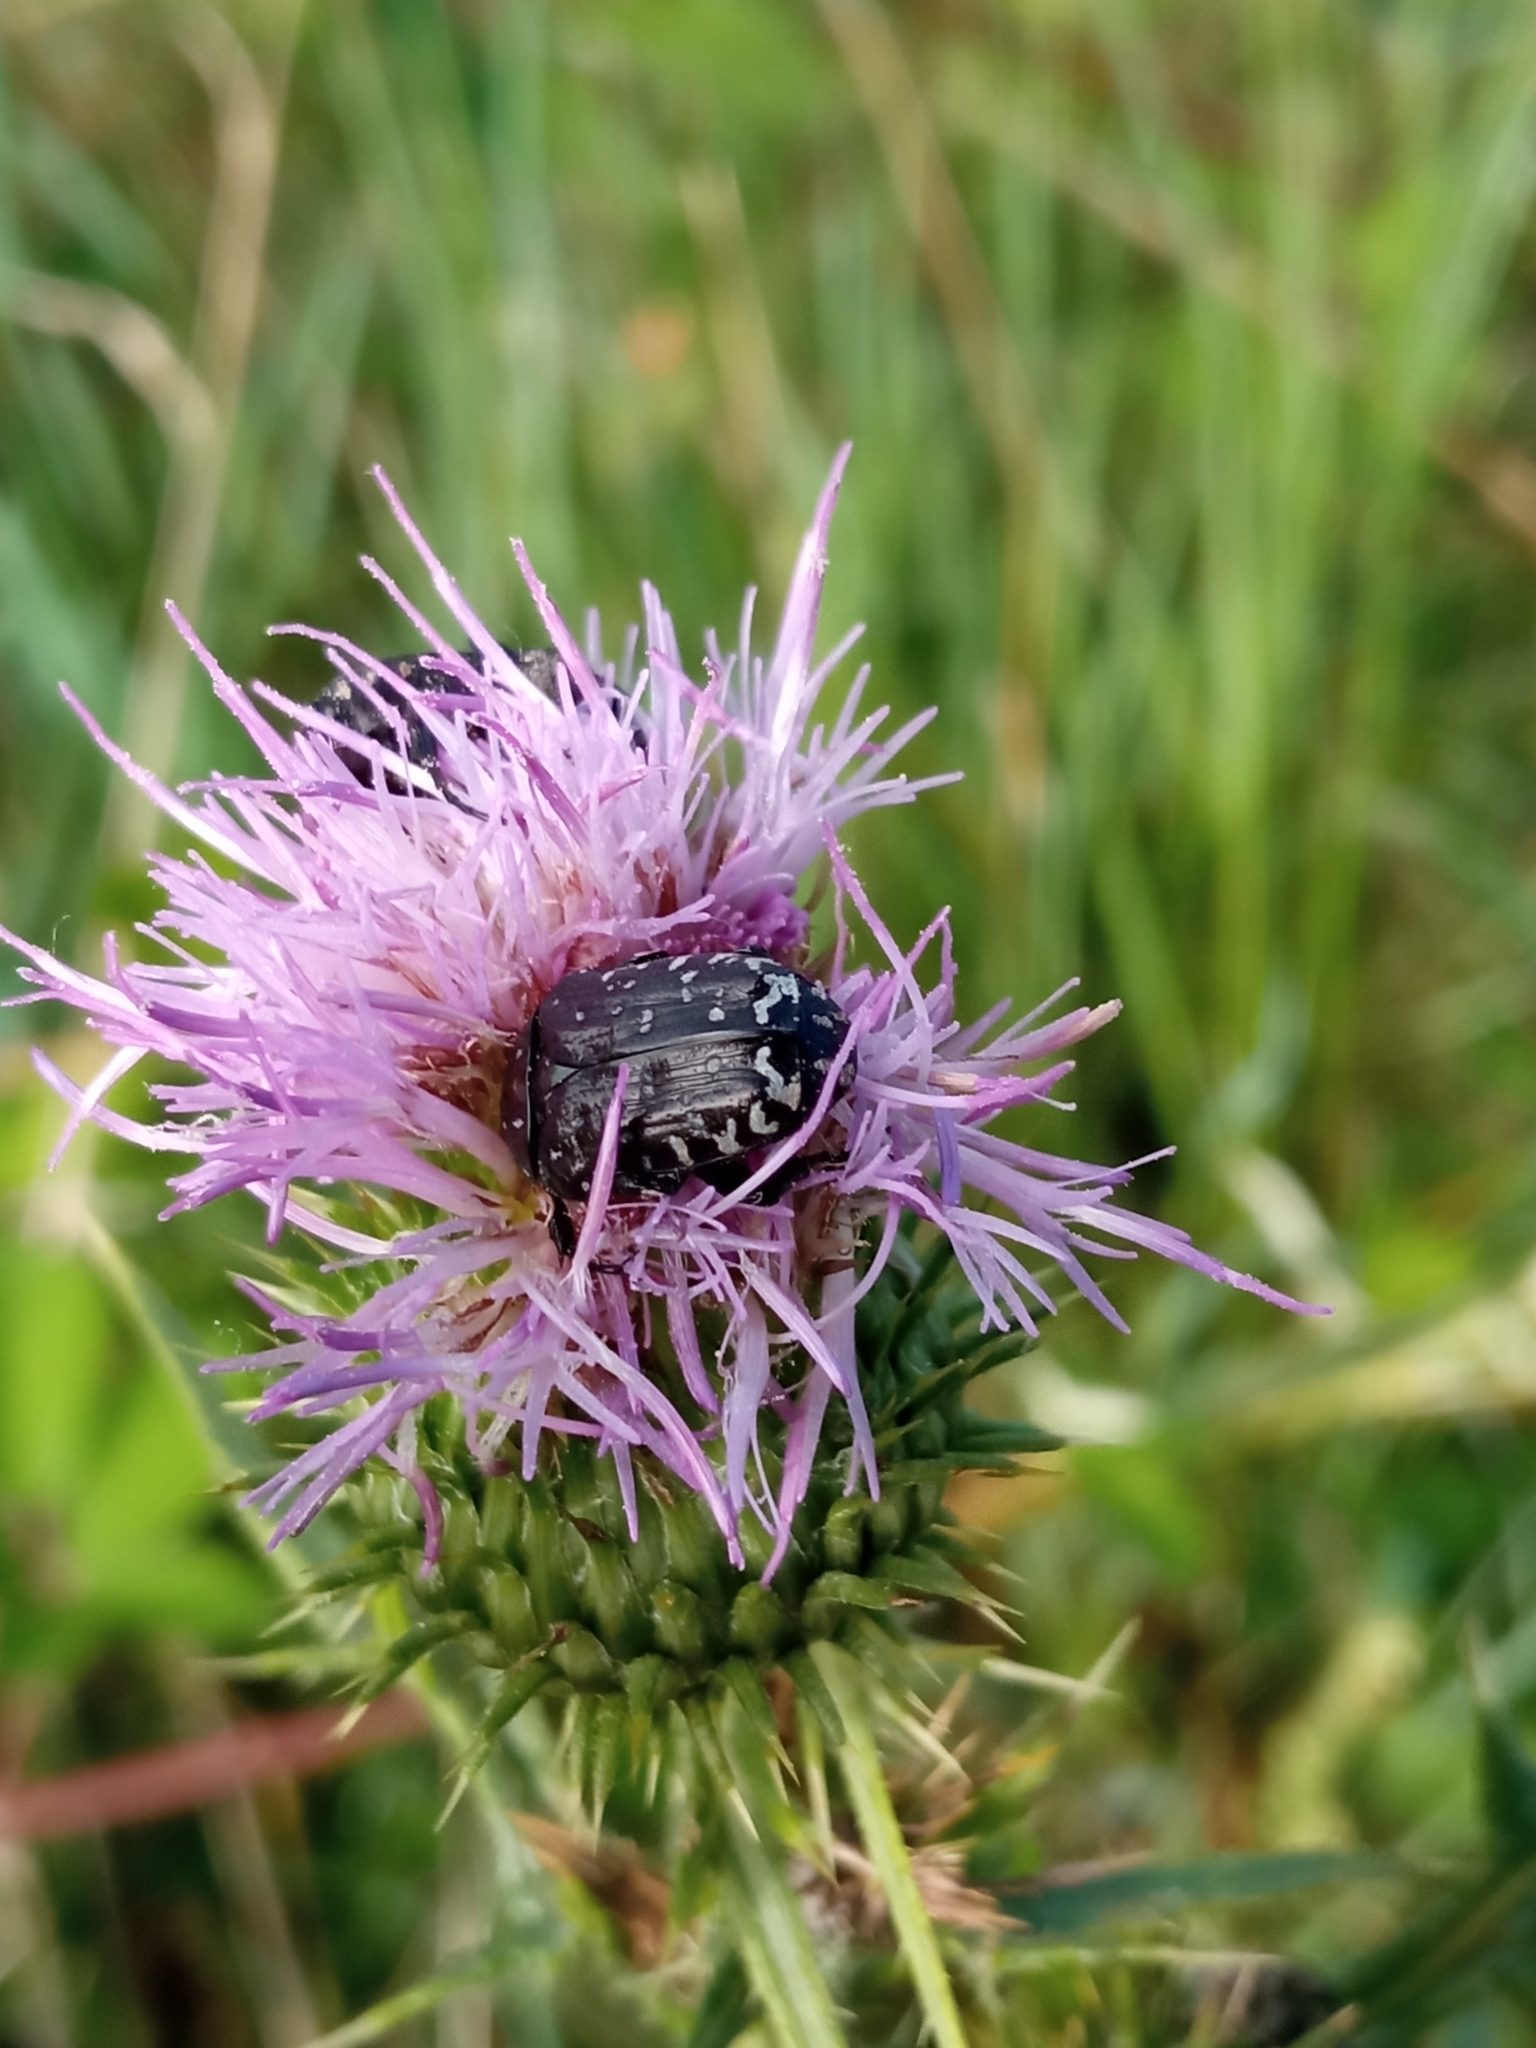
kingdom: Animalia
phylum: Arthropoda
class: Insecta
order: Coleoptera
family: Scarabaeidae
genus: Oxythyrea
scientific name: Oxythyrea funesta
